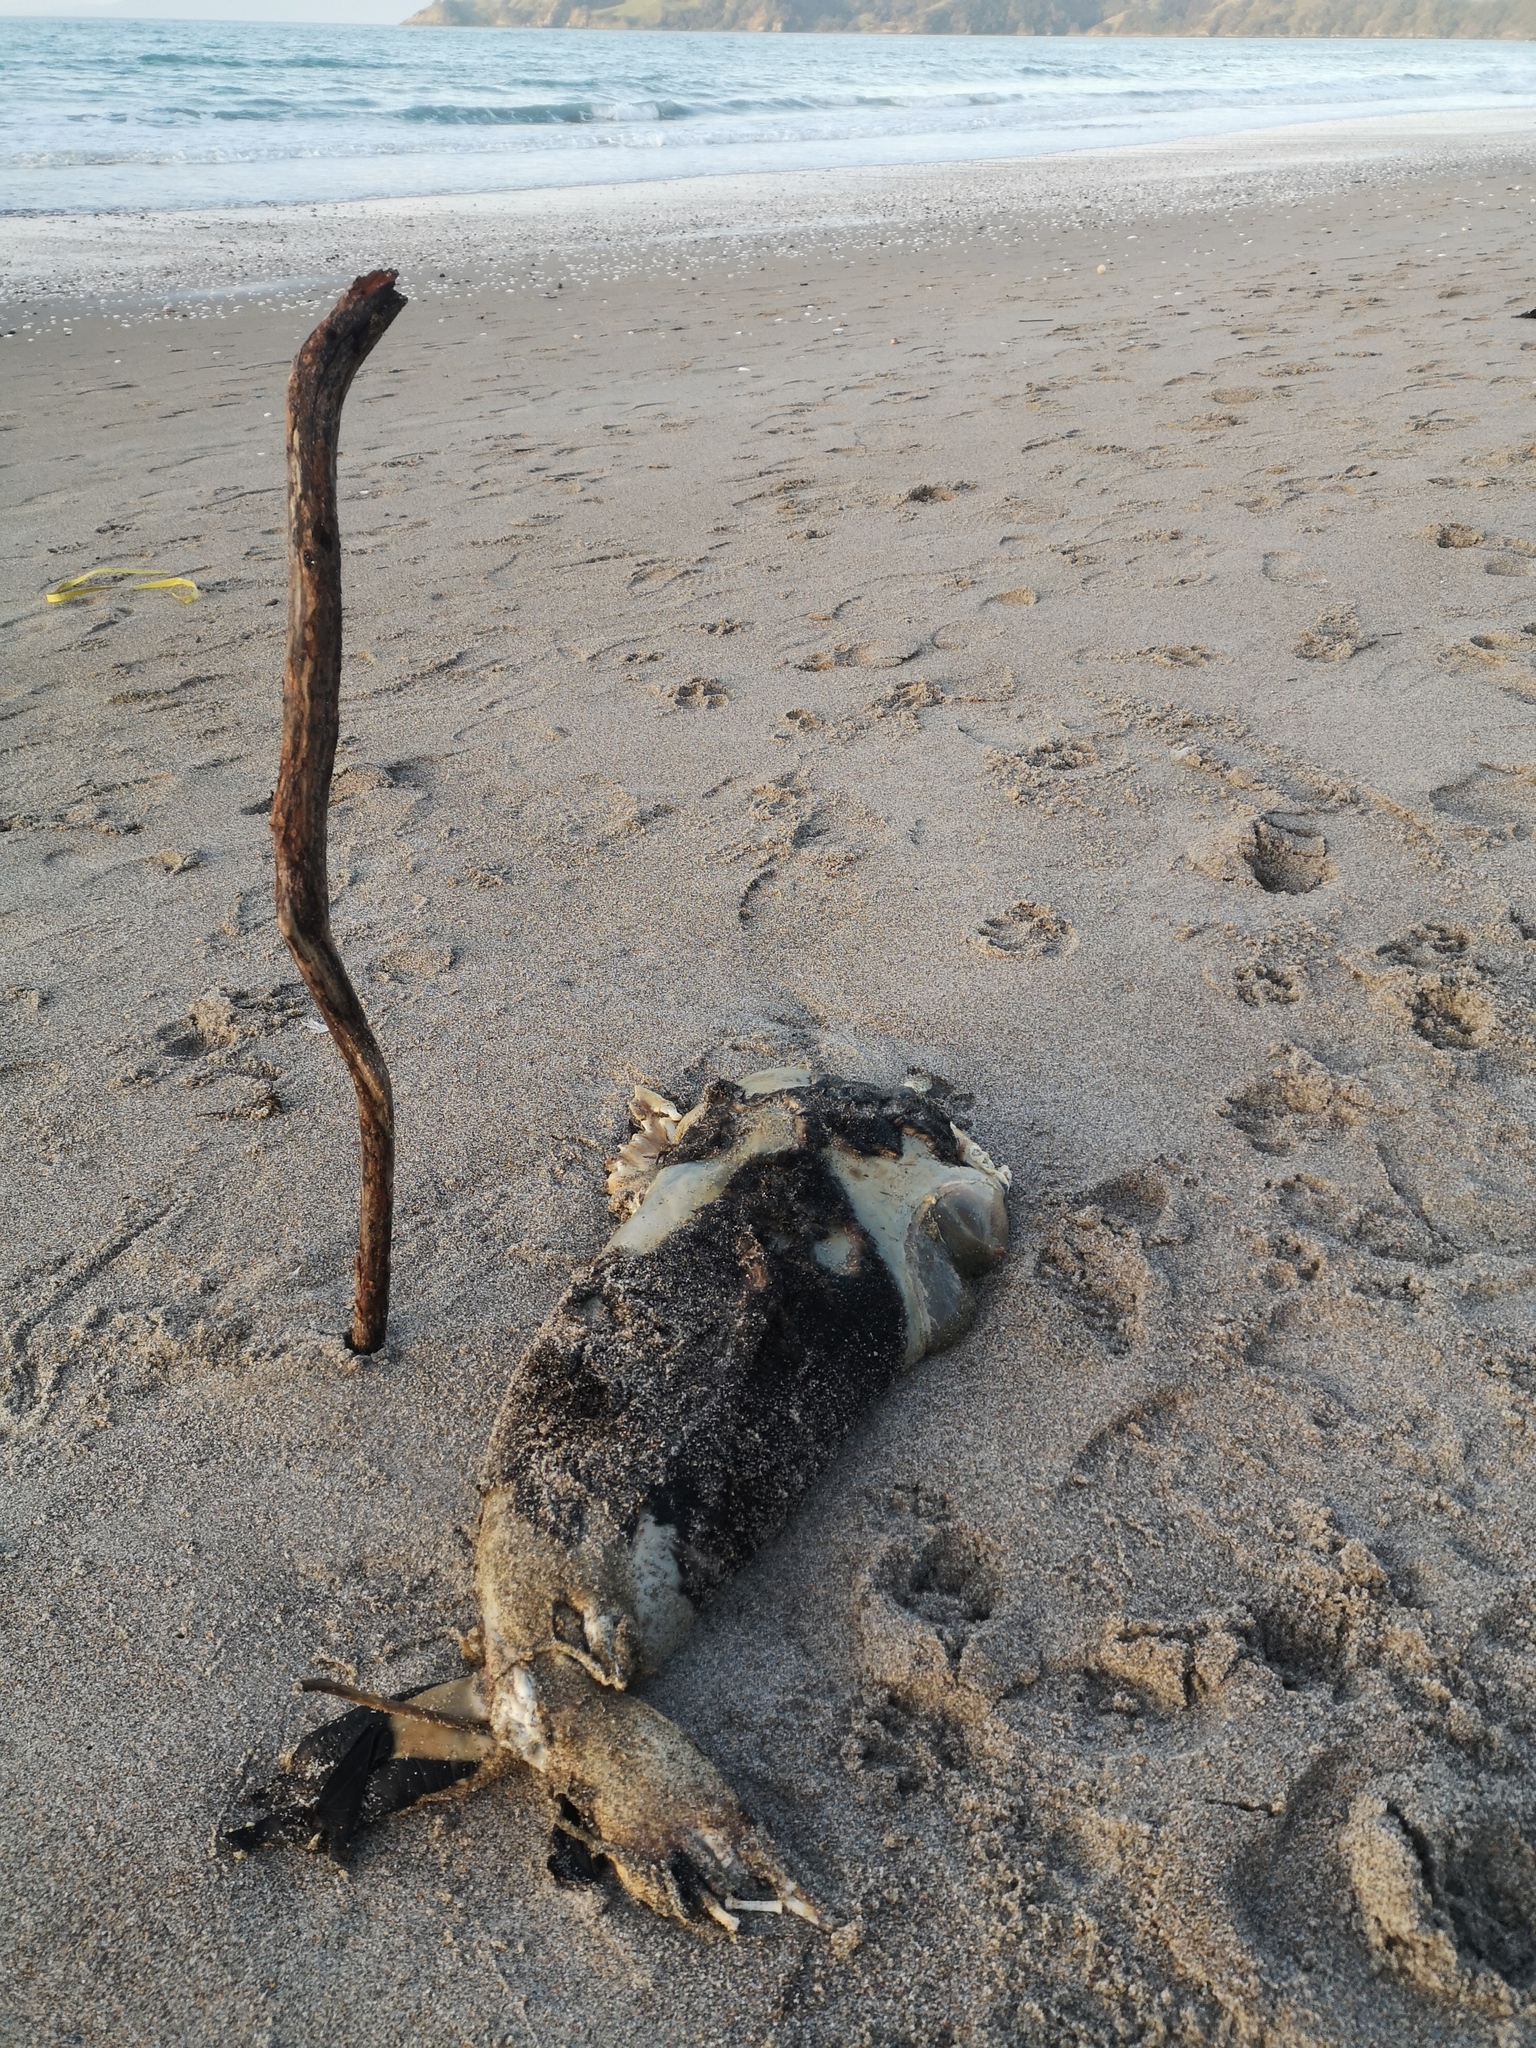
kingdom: Animalia
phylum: Chordata
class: Mammalia
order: Carnivora
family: Otariidae
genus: Arctocephalus
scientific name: Arctocephalus forsteri
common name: New zealand fur seal
